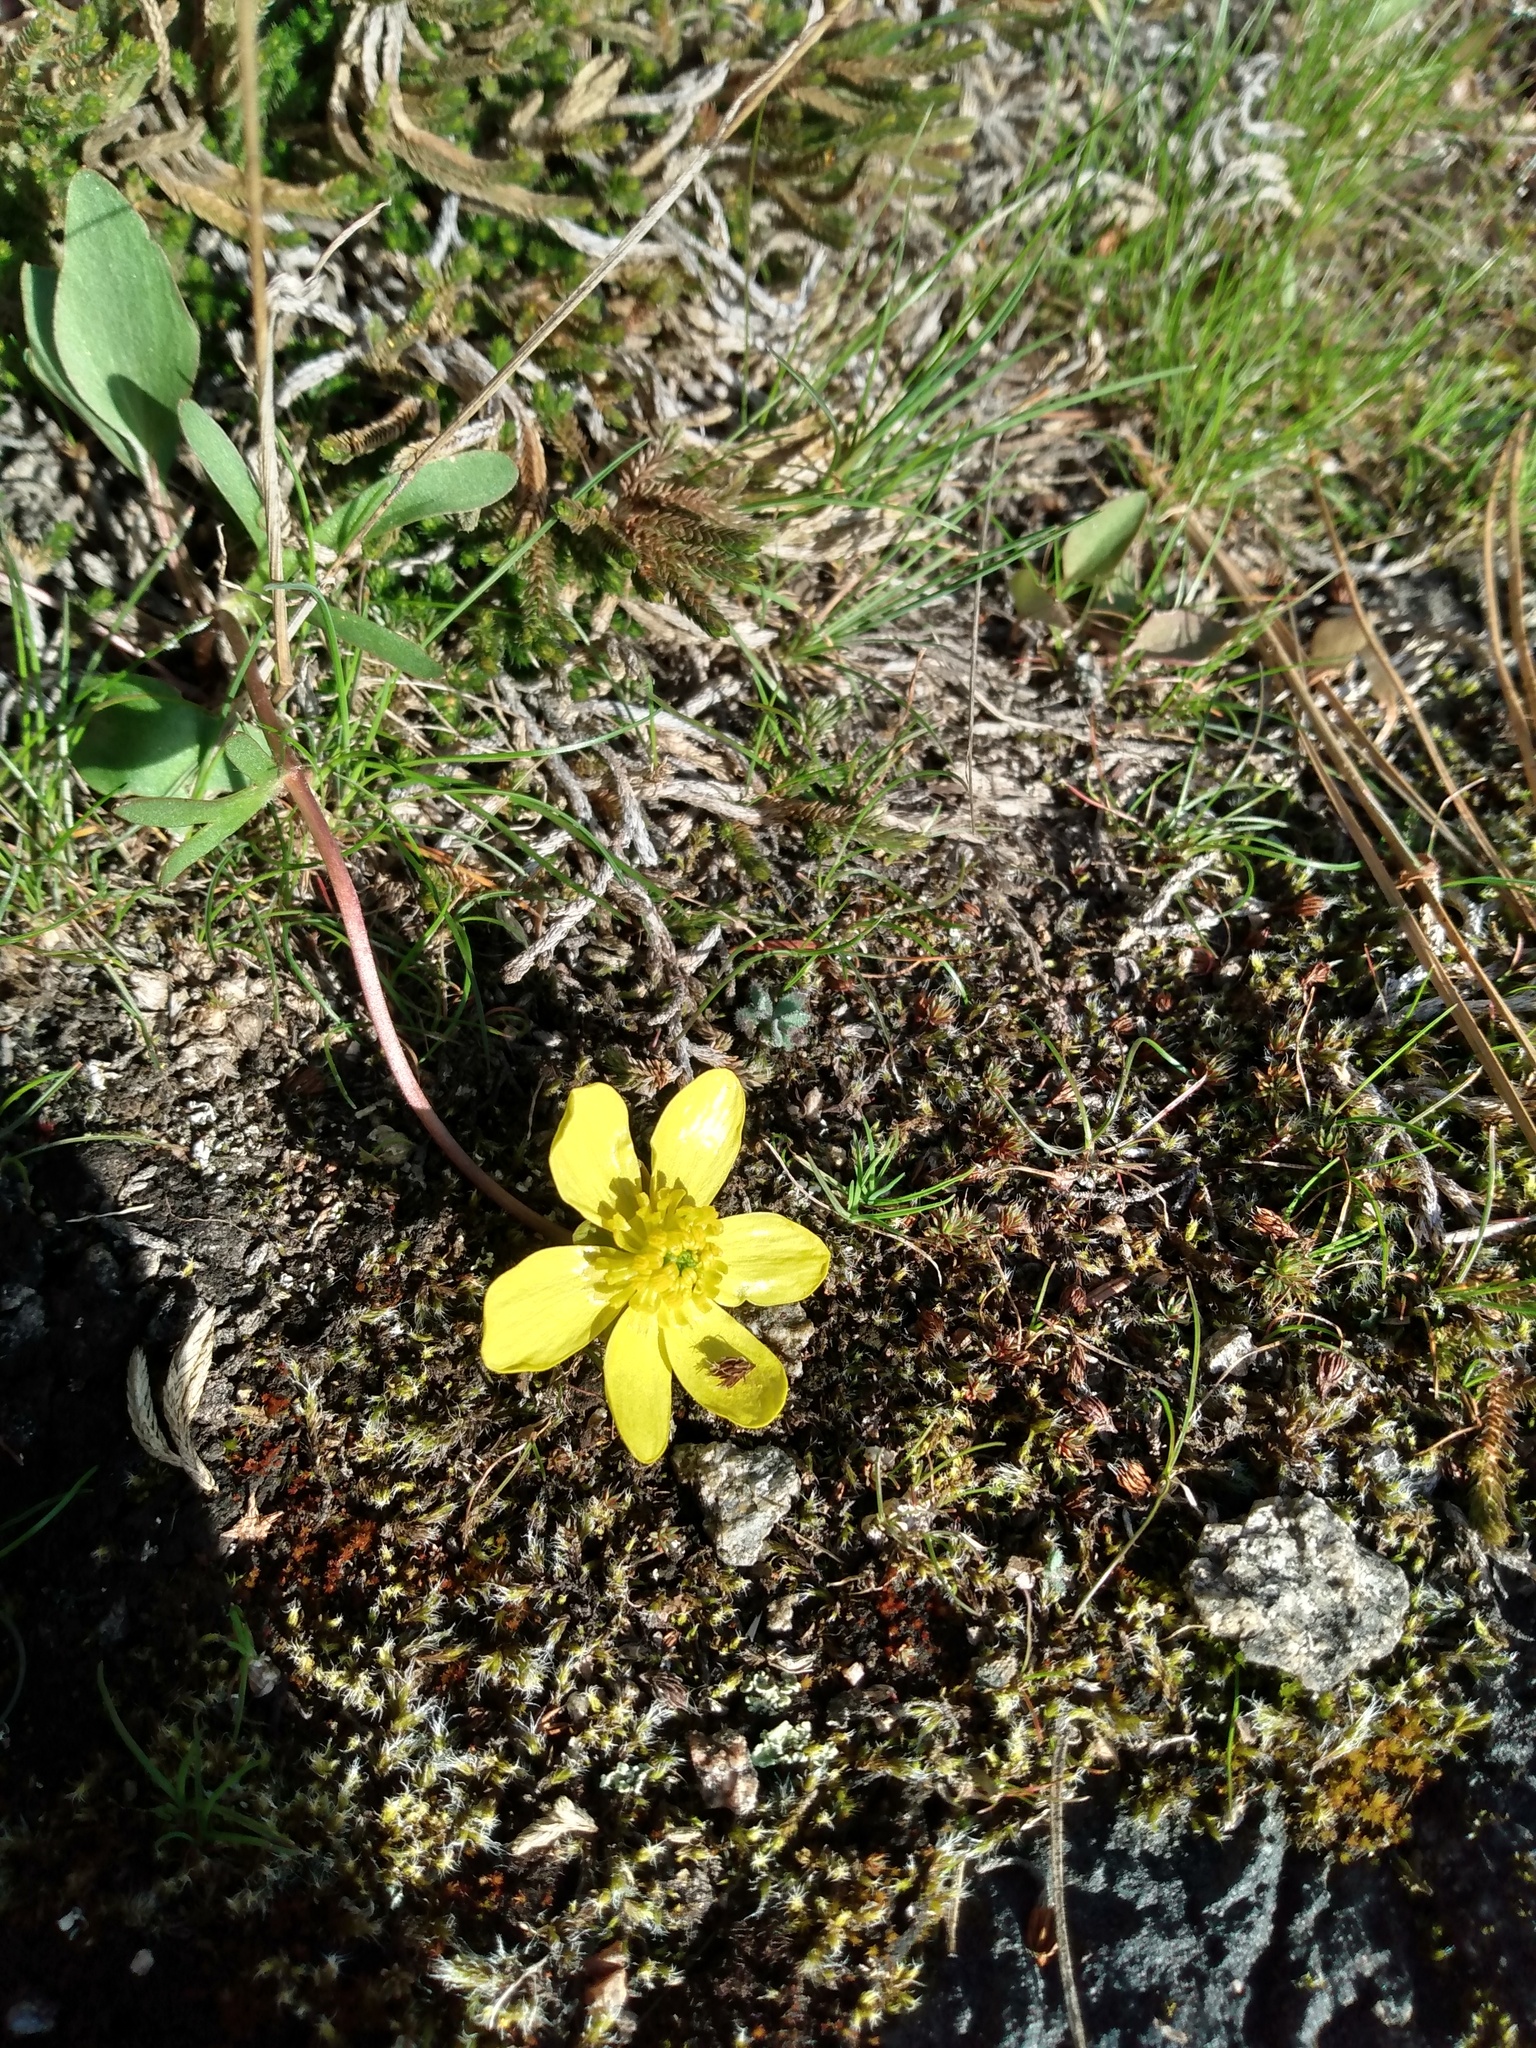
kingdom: Plantae
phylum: Tracheophyta
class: Magnoliopsida
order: Ranunculales
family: Ranunculaceae
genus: Ranunculus
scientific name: Ranunculus glaberrimus
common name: Sagebrush buttercup
